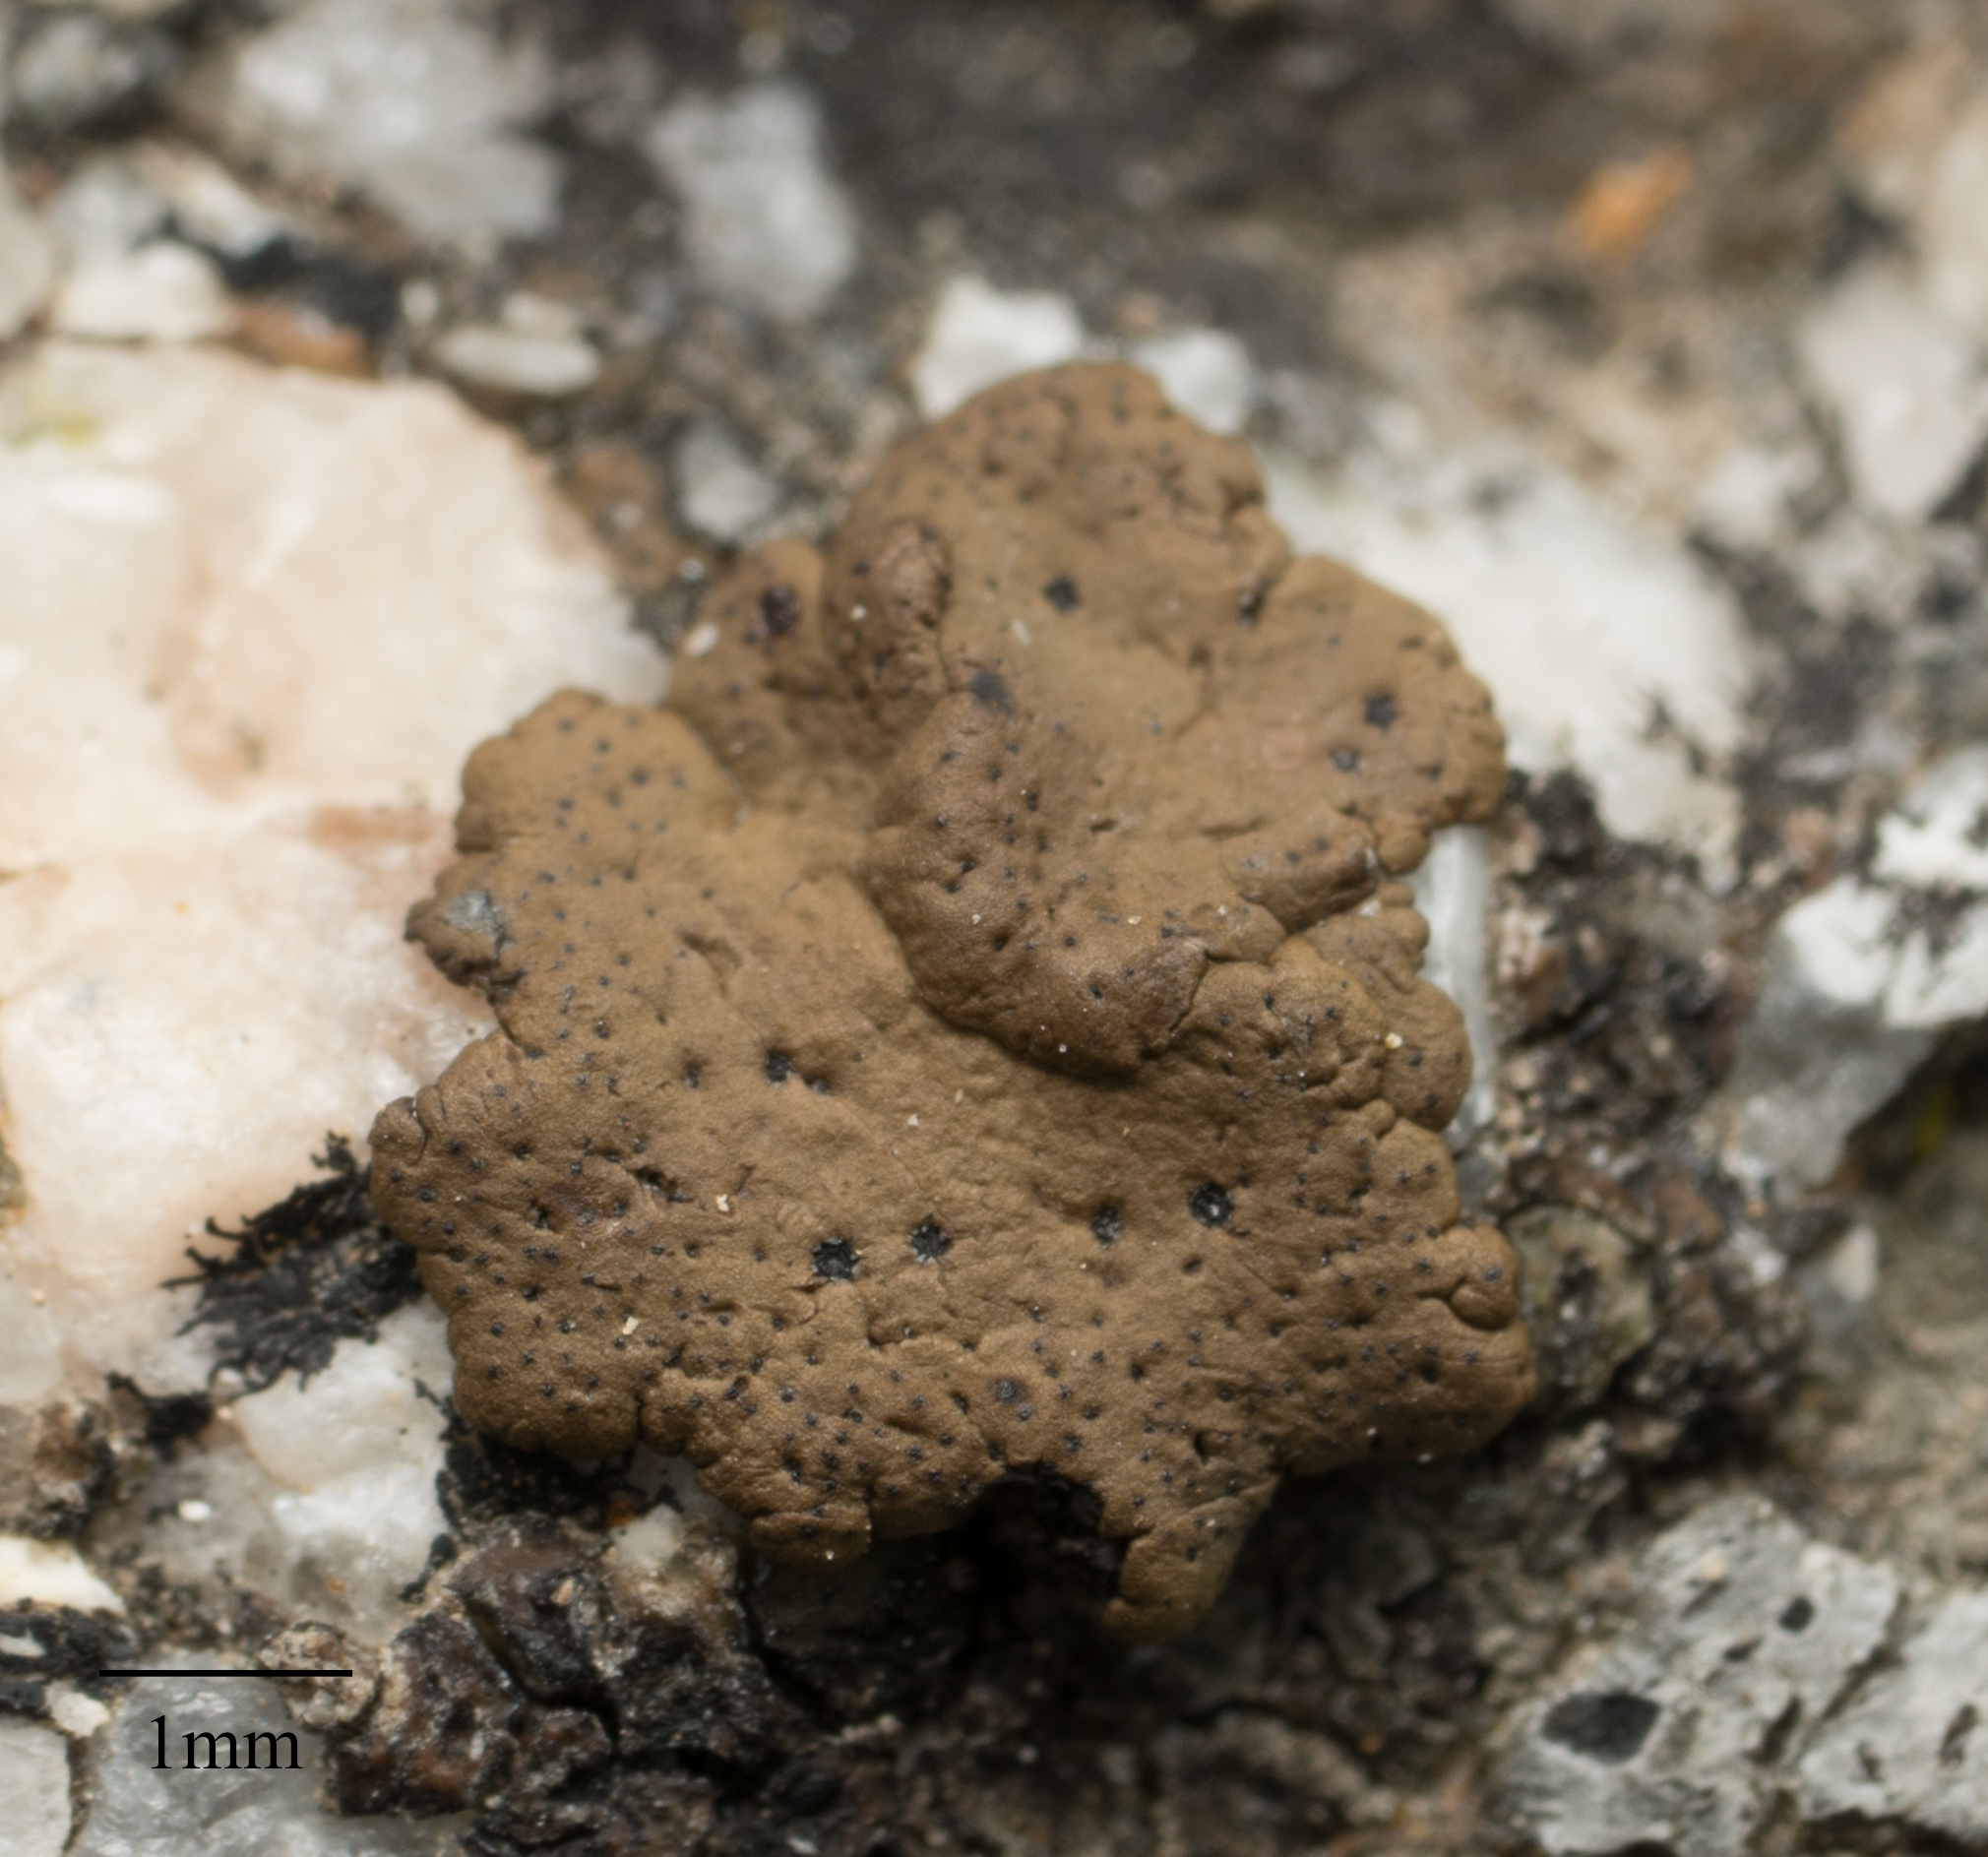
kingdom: Fungi
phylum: Ascomycota
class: Lecanoromycetes
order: Umbilicariales
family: Umbilicariaceae
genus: Umbilicaria
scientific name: Umbilicaria phaea
